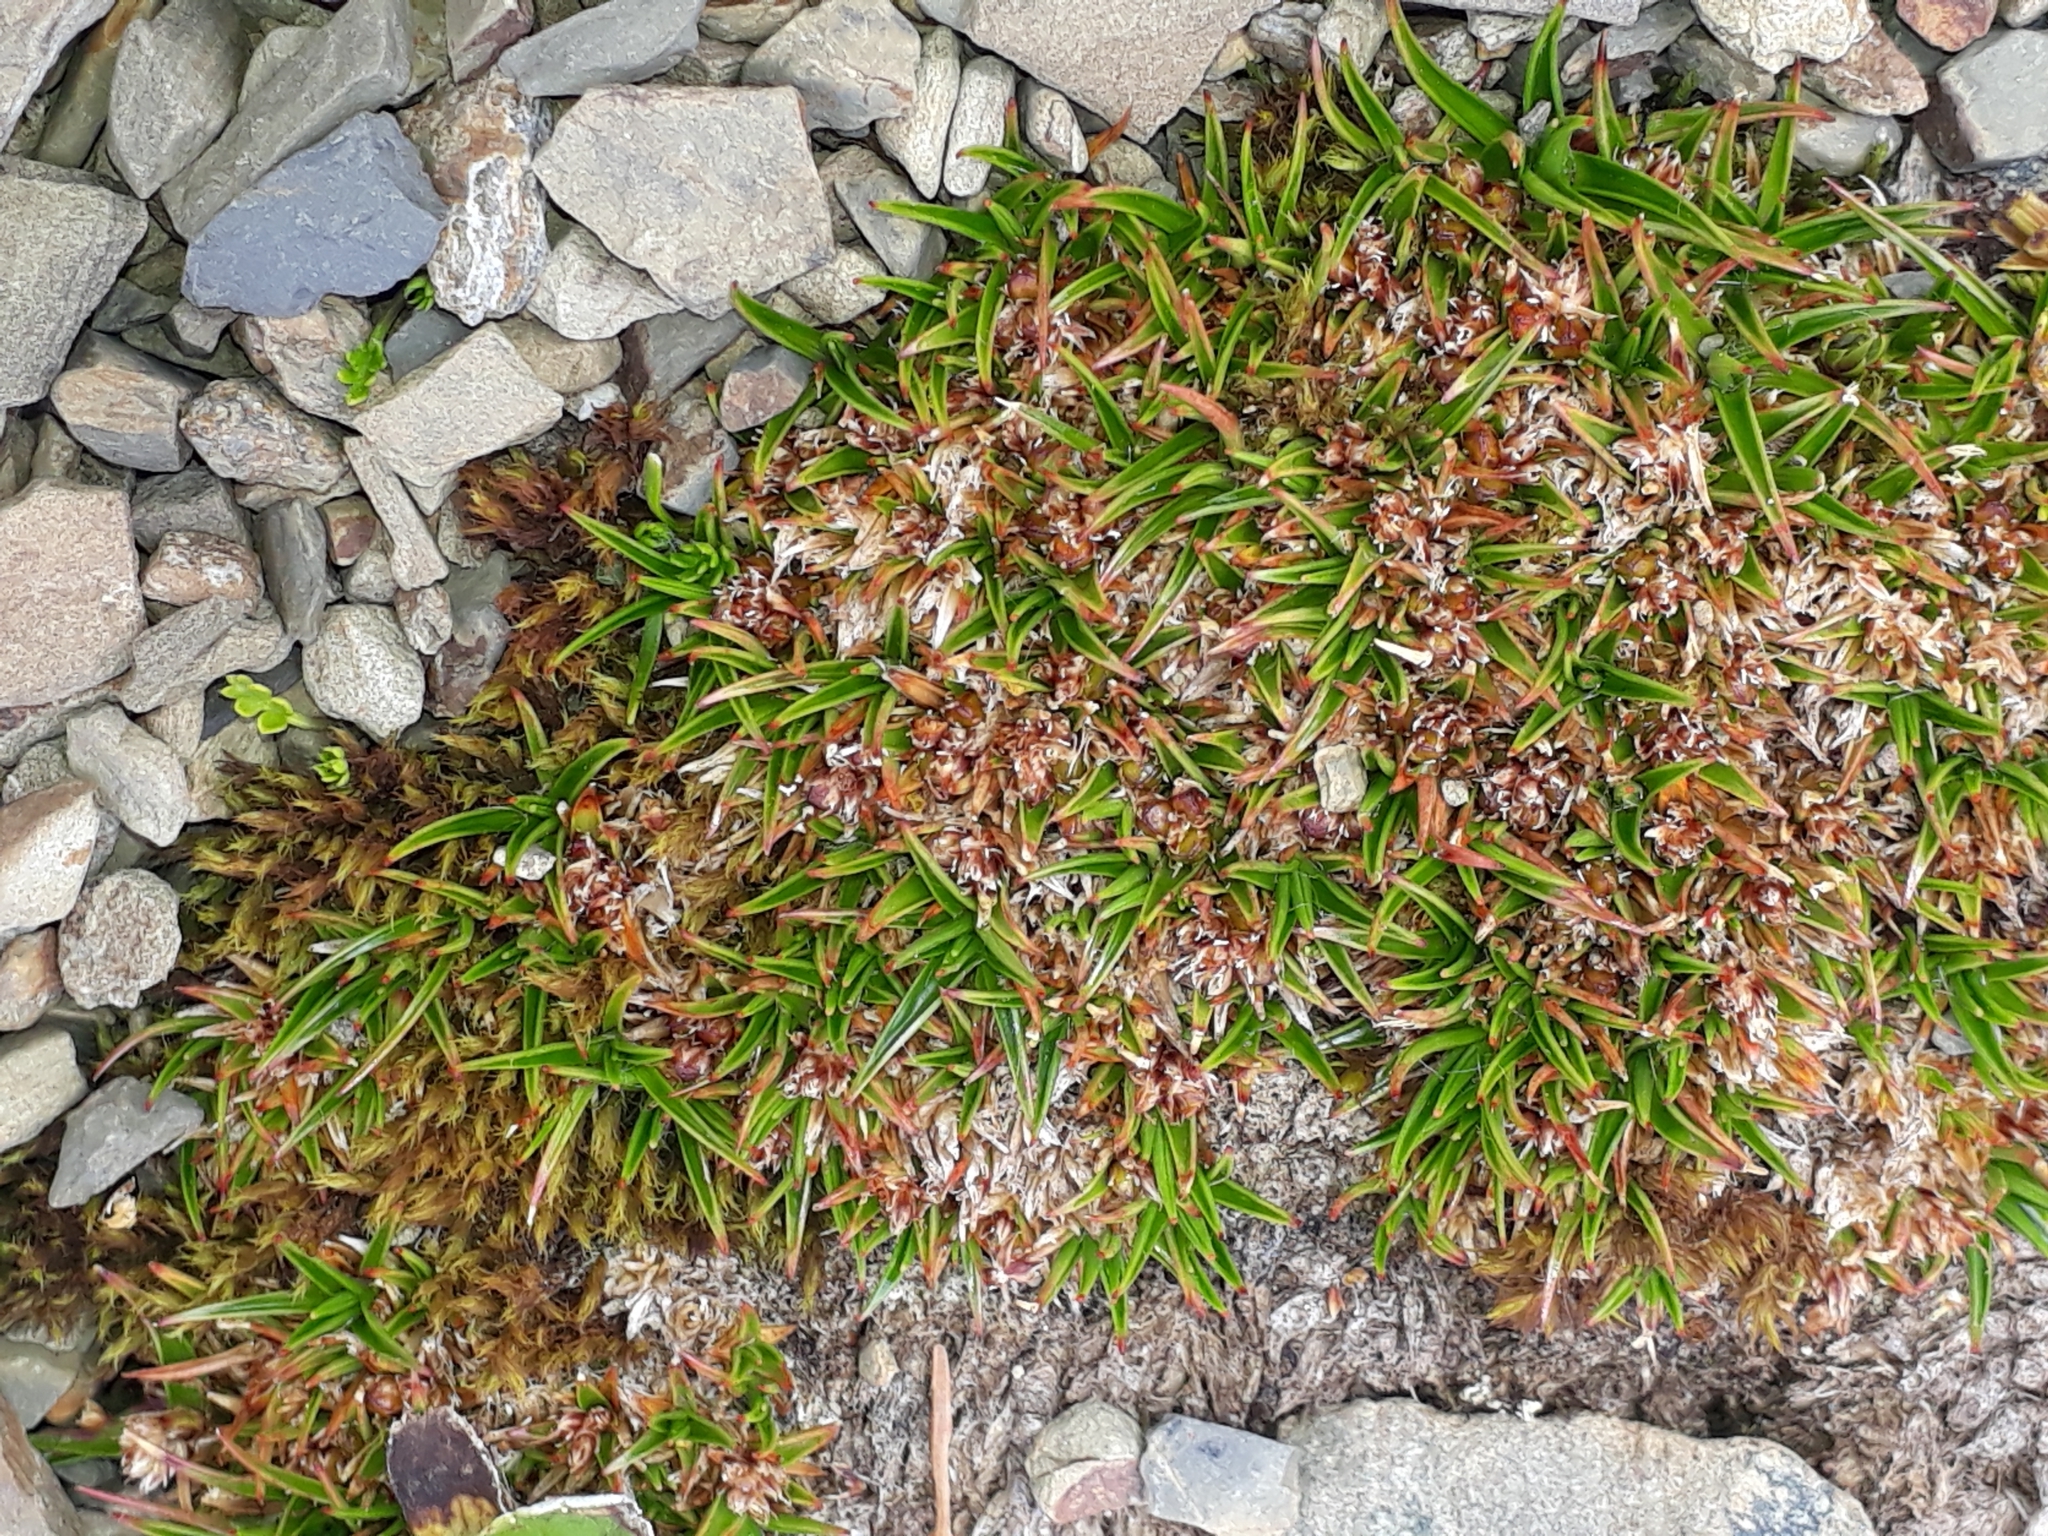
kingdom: Plantae
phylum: Tracheophyta
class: Liliopsida
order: Poales
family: Juncaceae
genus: Luzula
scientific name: Luzula colensoi
